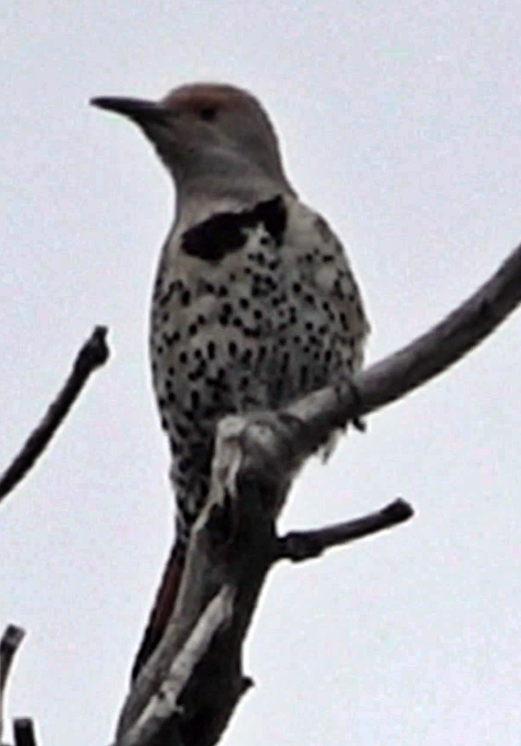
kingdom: Animalia
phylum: Chordata
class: Aves
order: Piciformes
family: Picidae
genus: Colaptes
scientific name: Colaptes auratus
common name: Northern flicker
